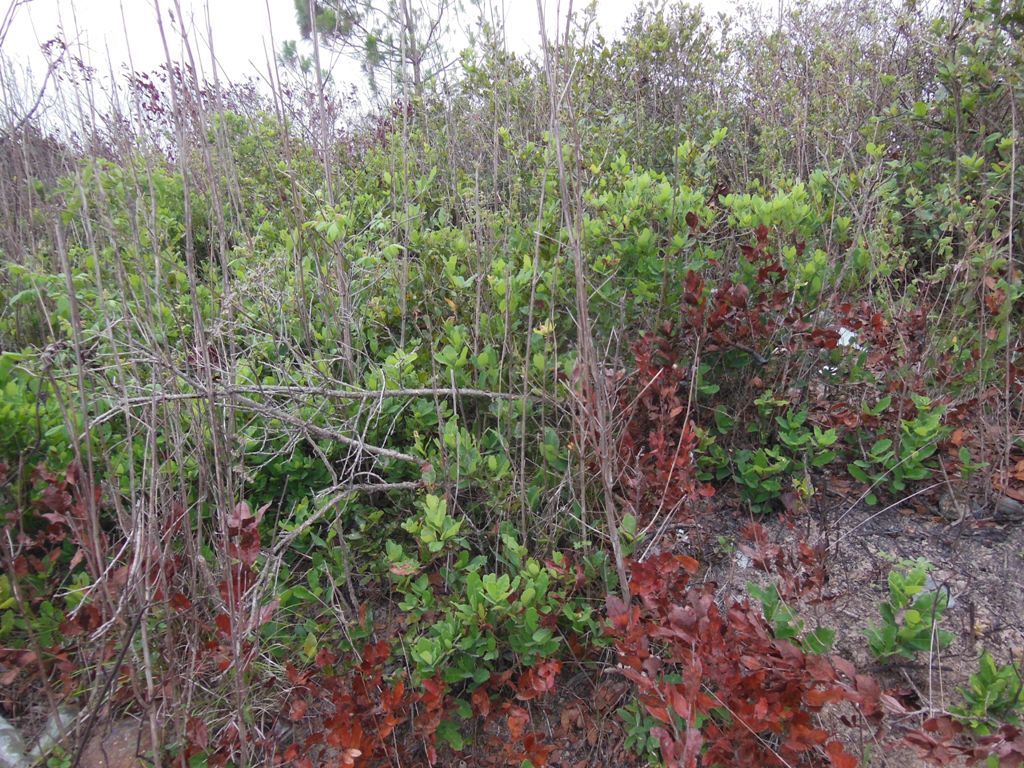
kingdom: Plantae
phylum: Tracheophyta
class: Magnoliopsida
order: Fagales
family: Fagaceae
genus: Quercus
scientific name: Quercus sebifera
